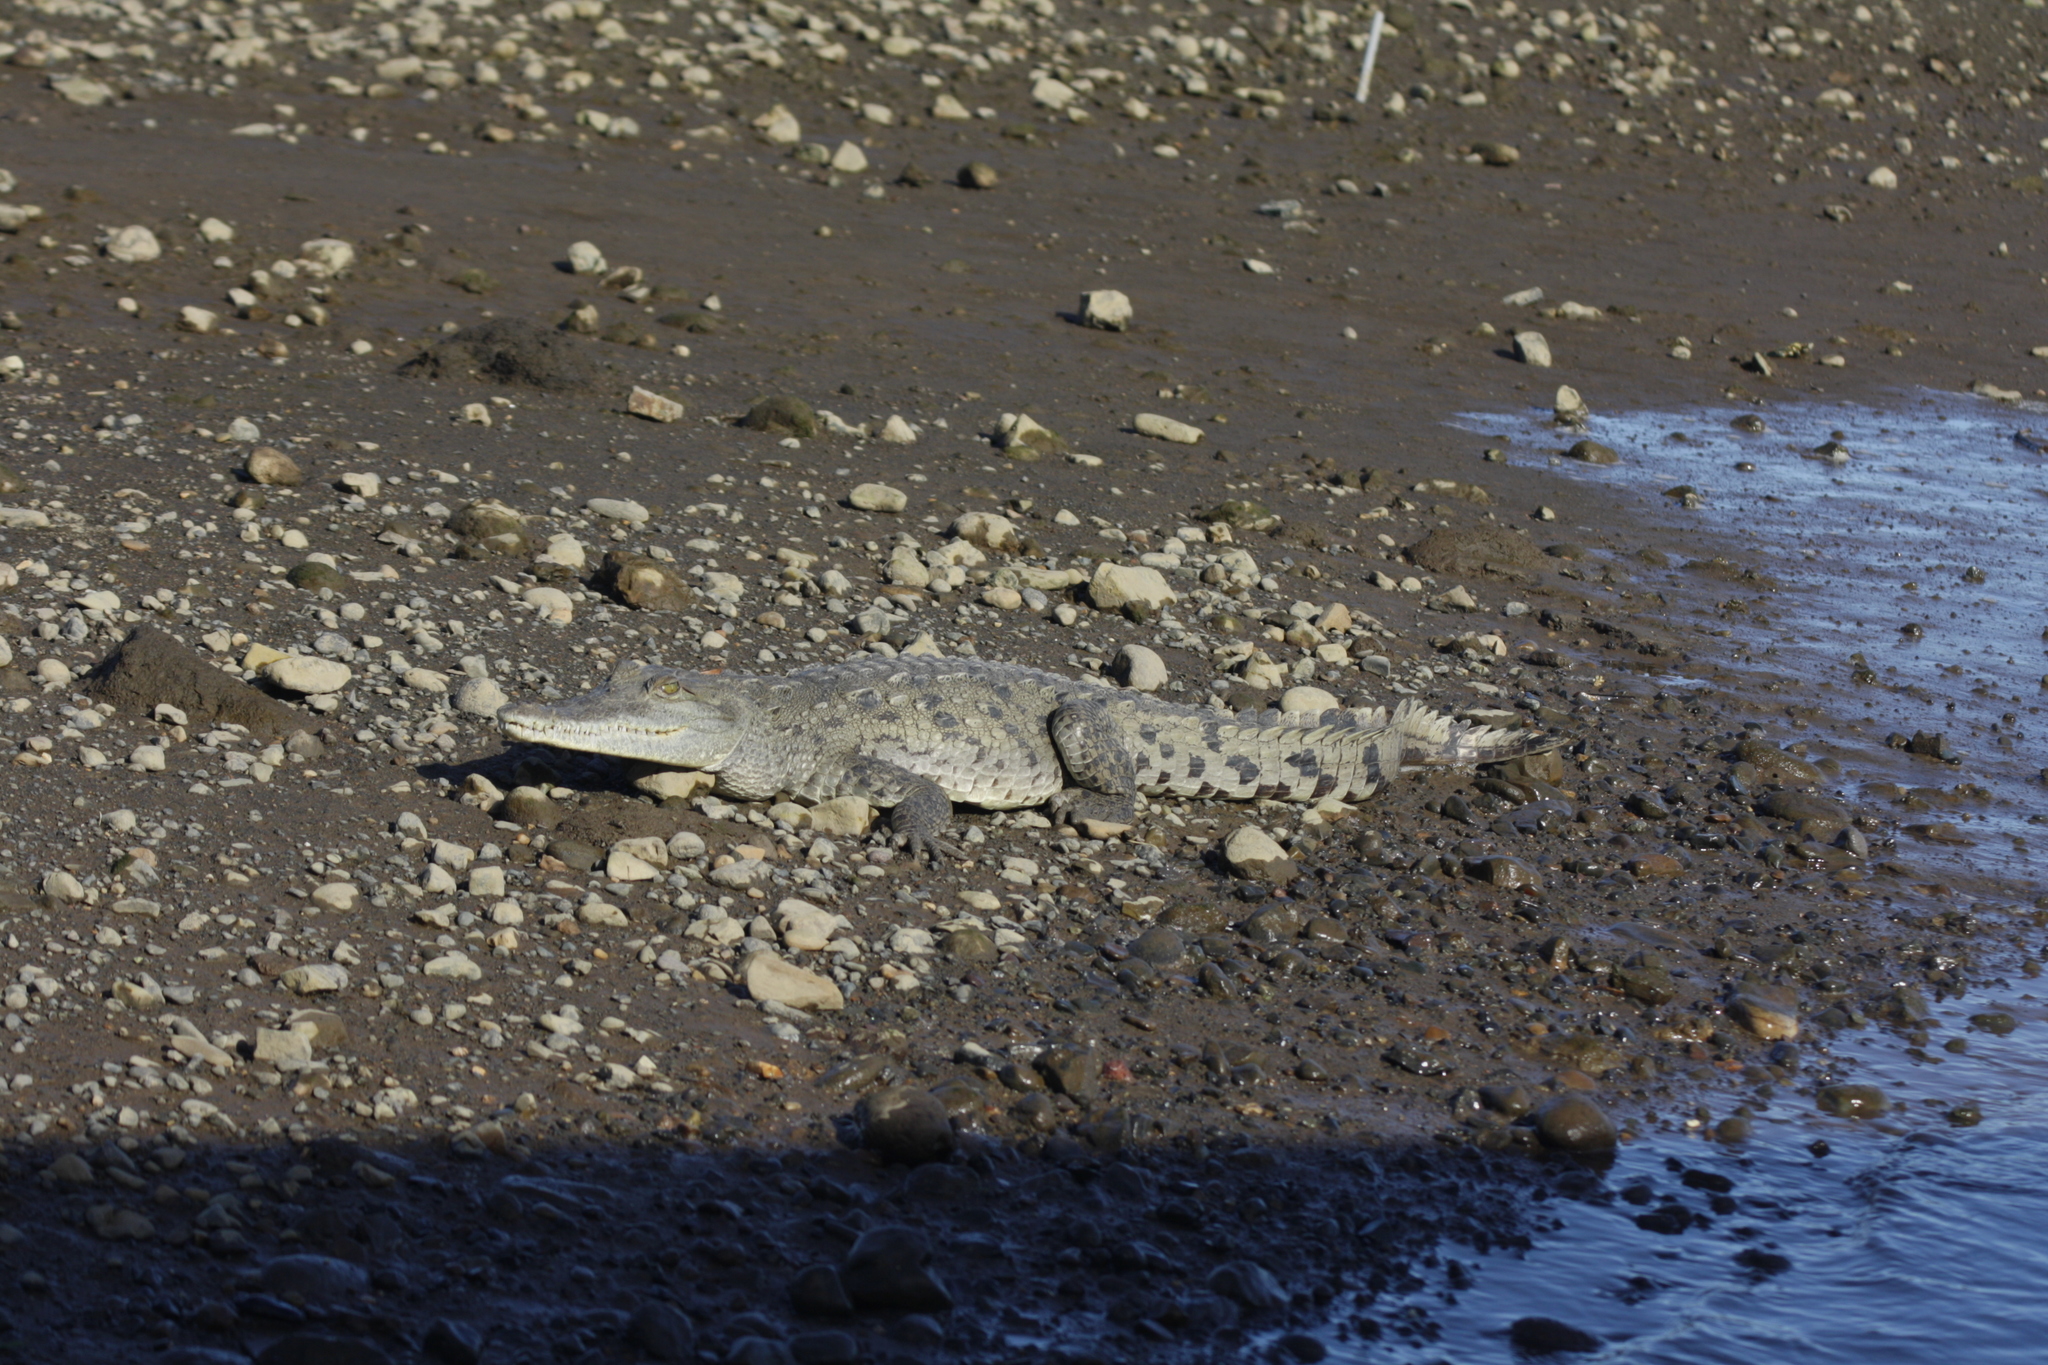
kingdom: Animalia
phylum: Chordata
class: Crocodylia
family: Crocodylidae
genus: Crocodylus
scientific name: Crocodylus acutus
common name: American crocodile
